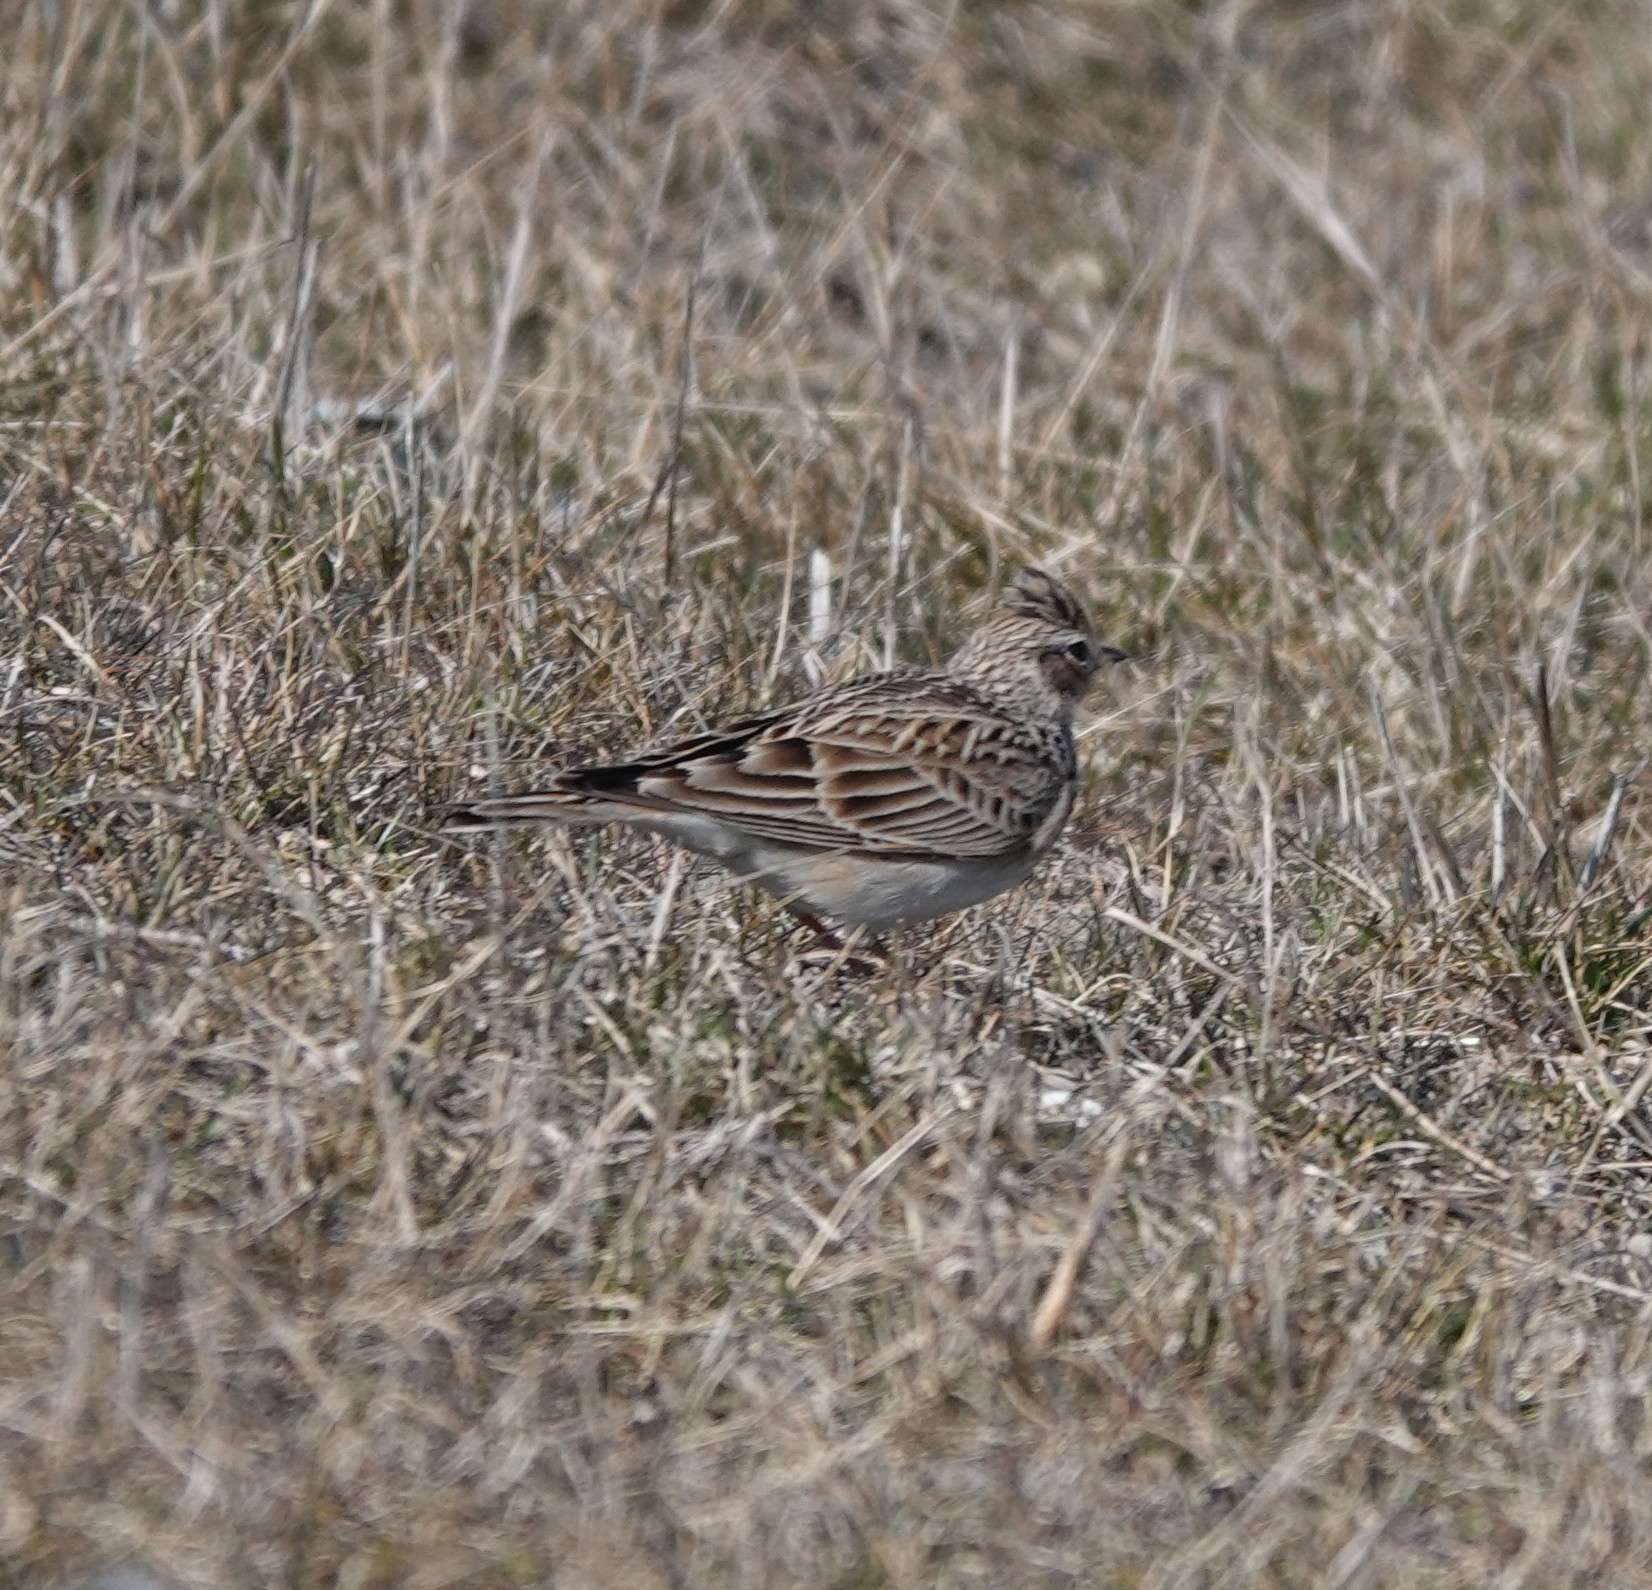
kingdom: Animalia
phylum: Chordata
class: Aves
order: Passeriformes
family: Alaudidae
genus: Alauda
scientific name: Alauda arvensis
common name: Eurasian skylark
